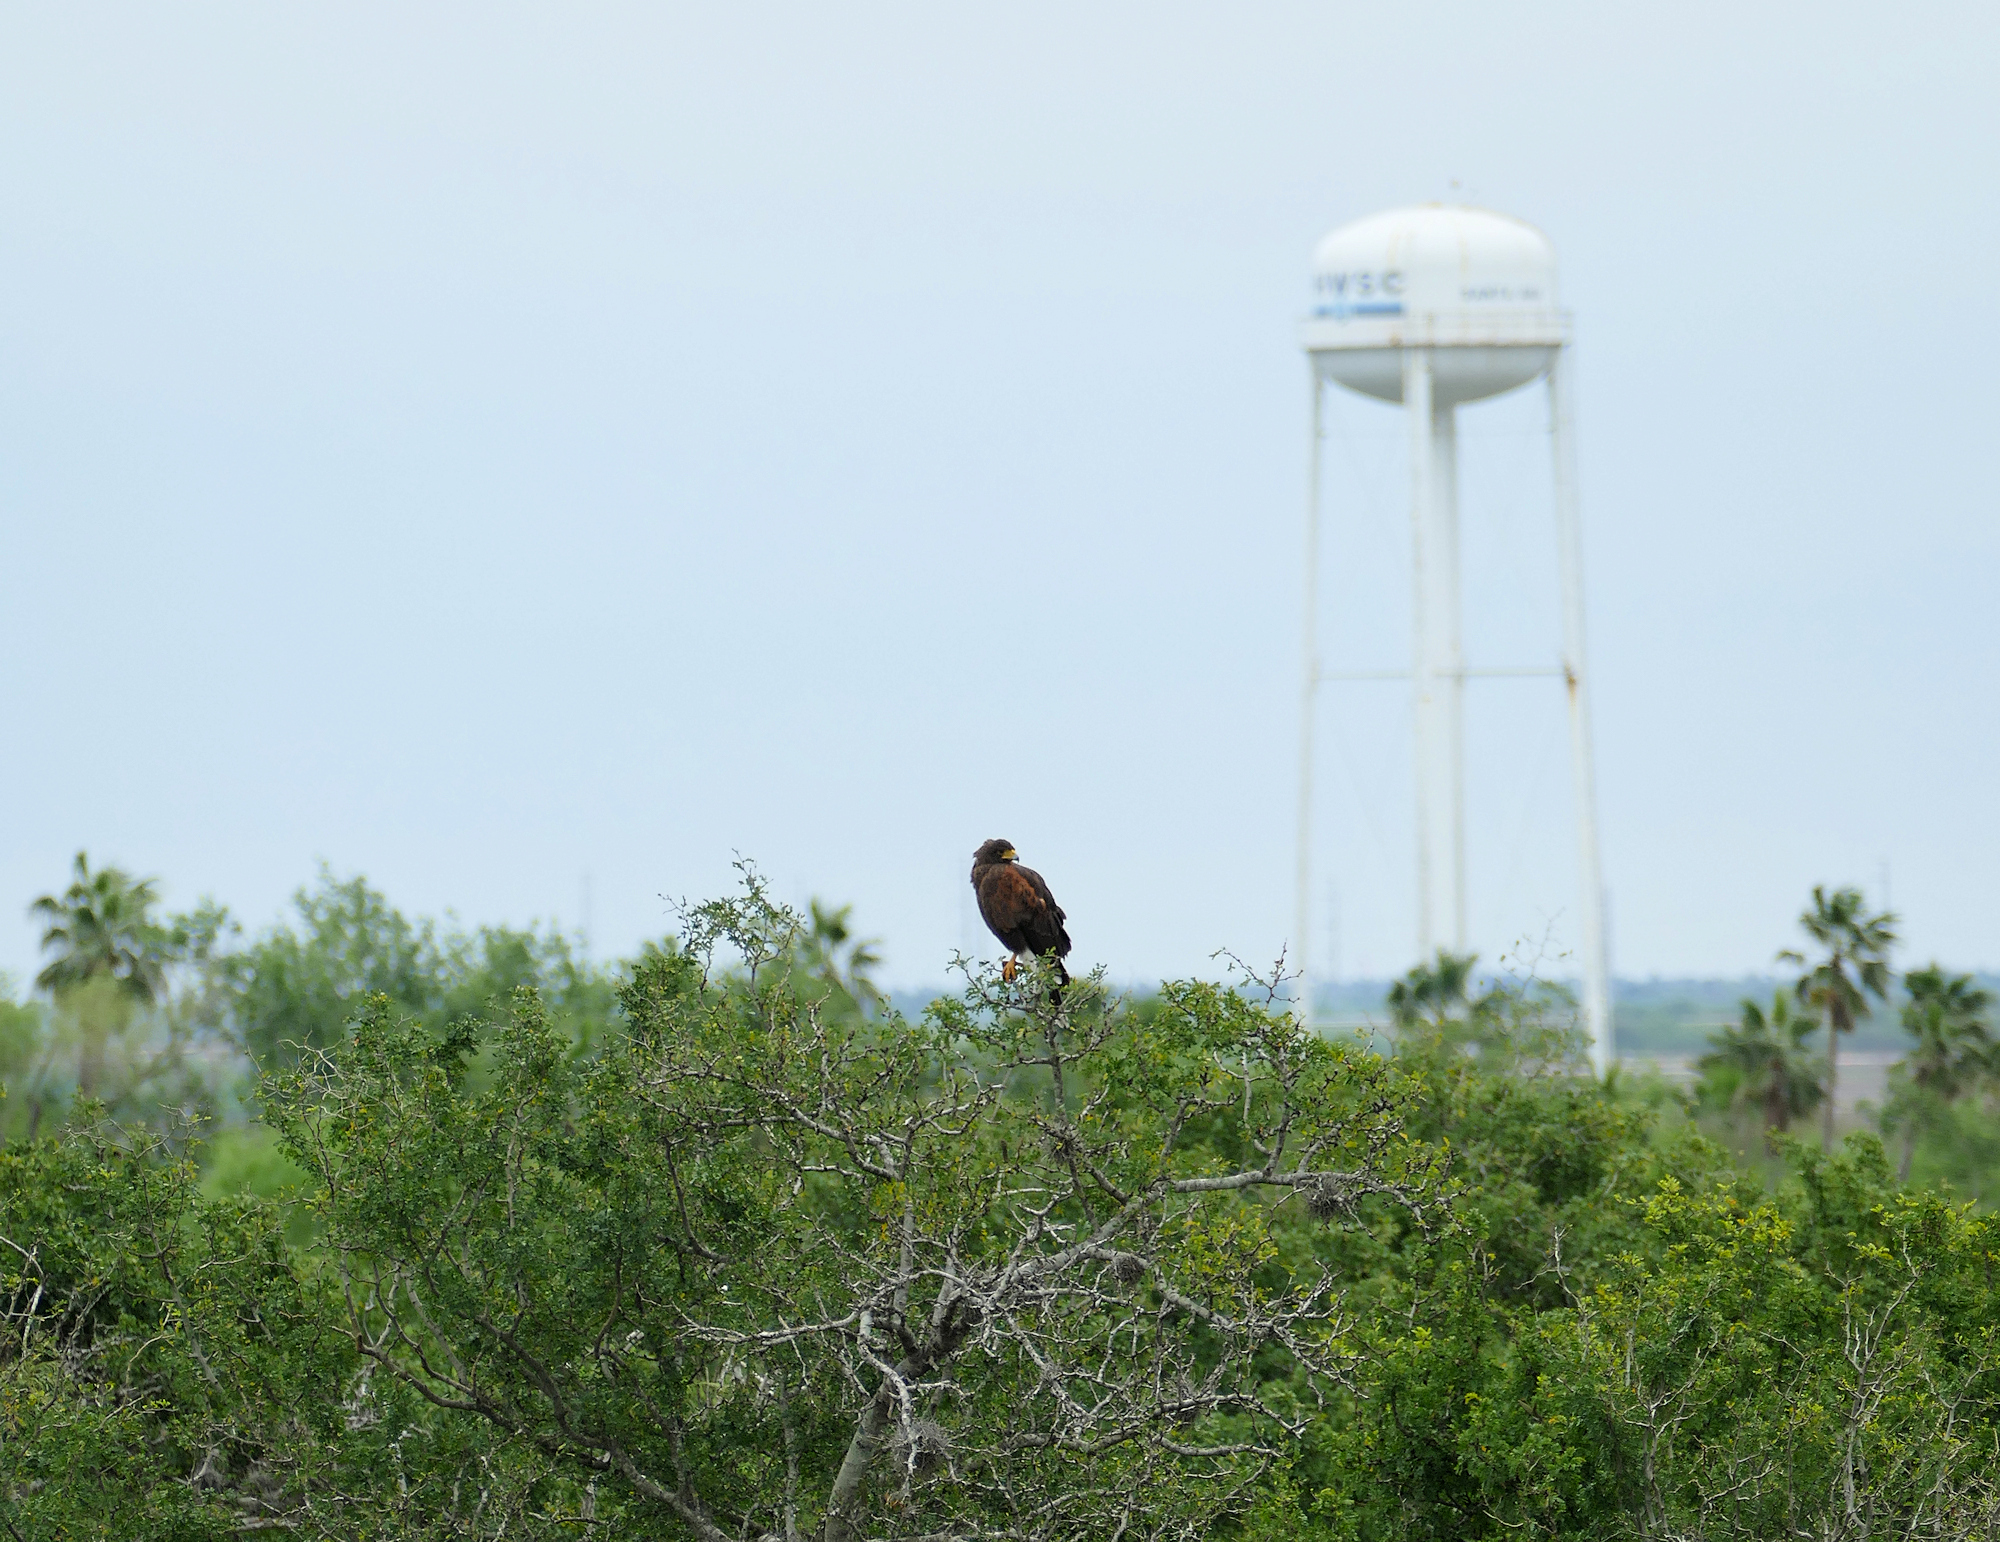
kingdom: Animalia
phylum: Chordata
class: Aves
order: Accipitriformes
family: Accipitridae
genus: Parabuteo
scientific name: Parabuteo unicinctus
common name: Harris's hawk
